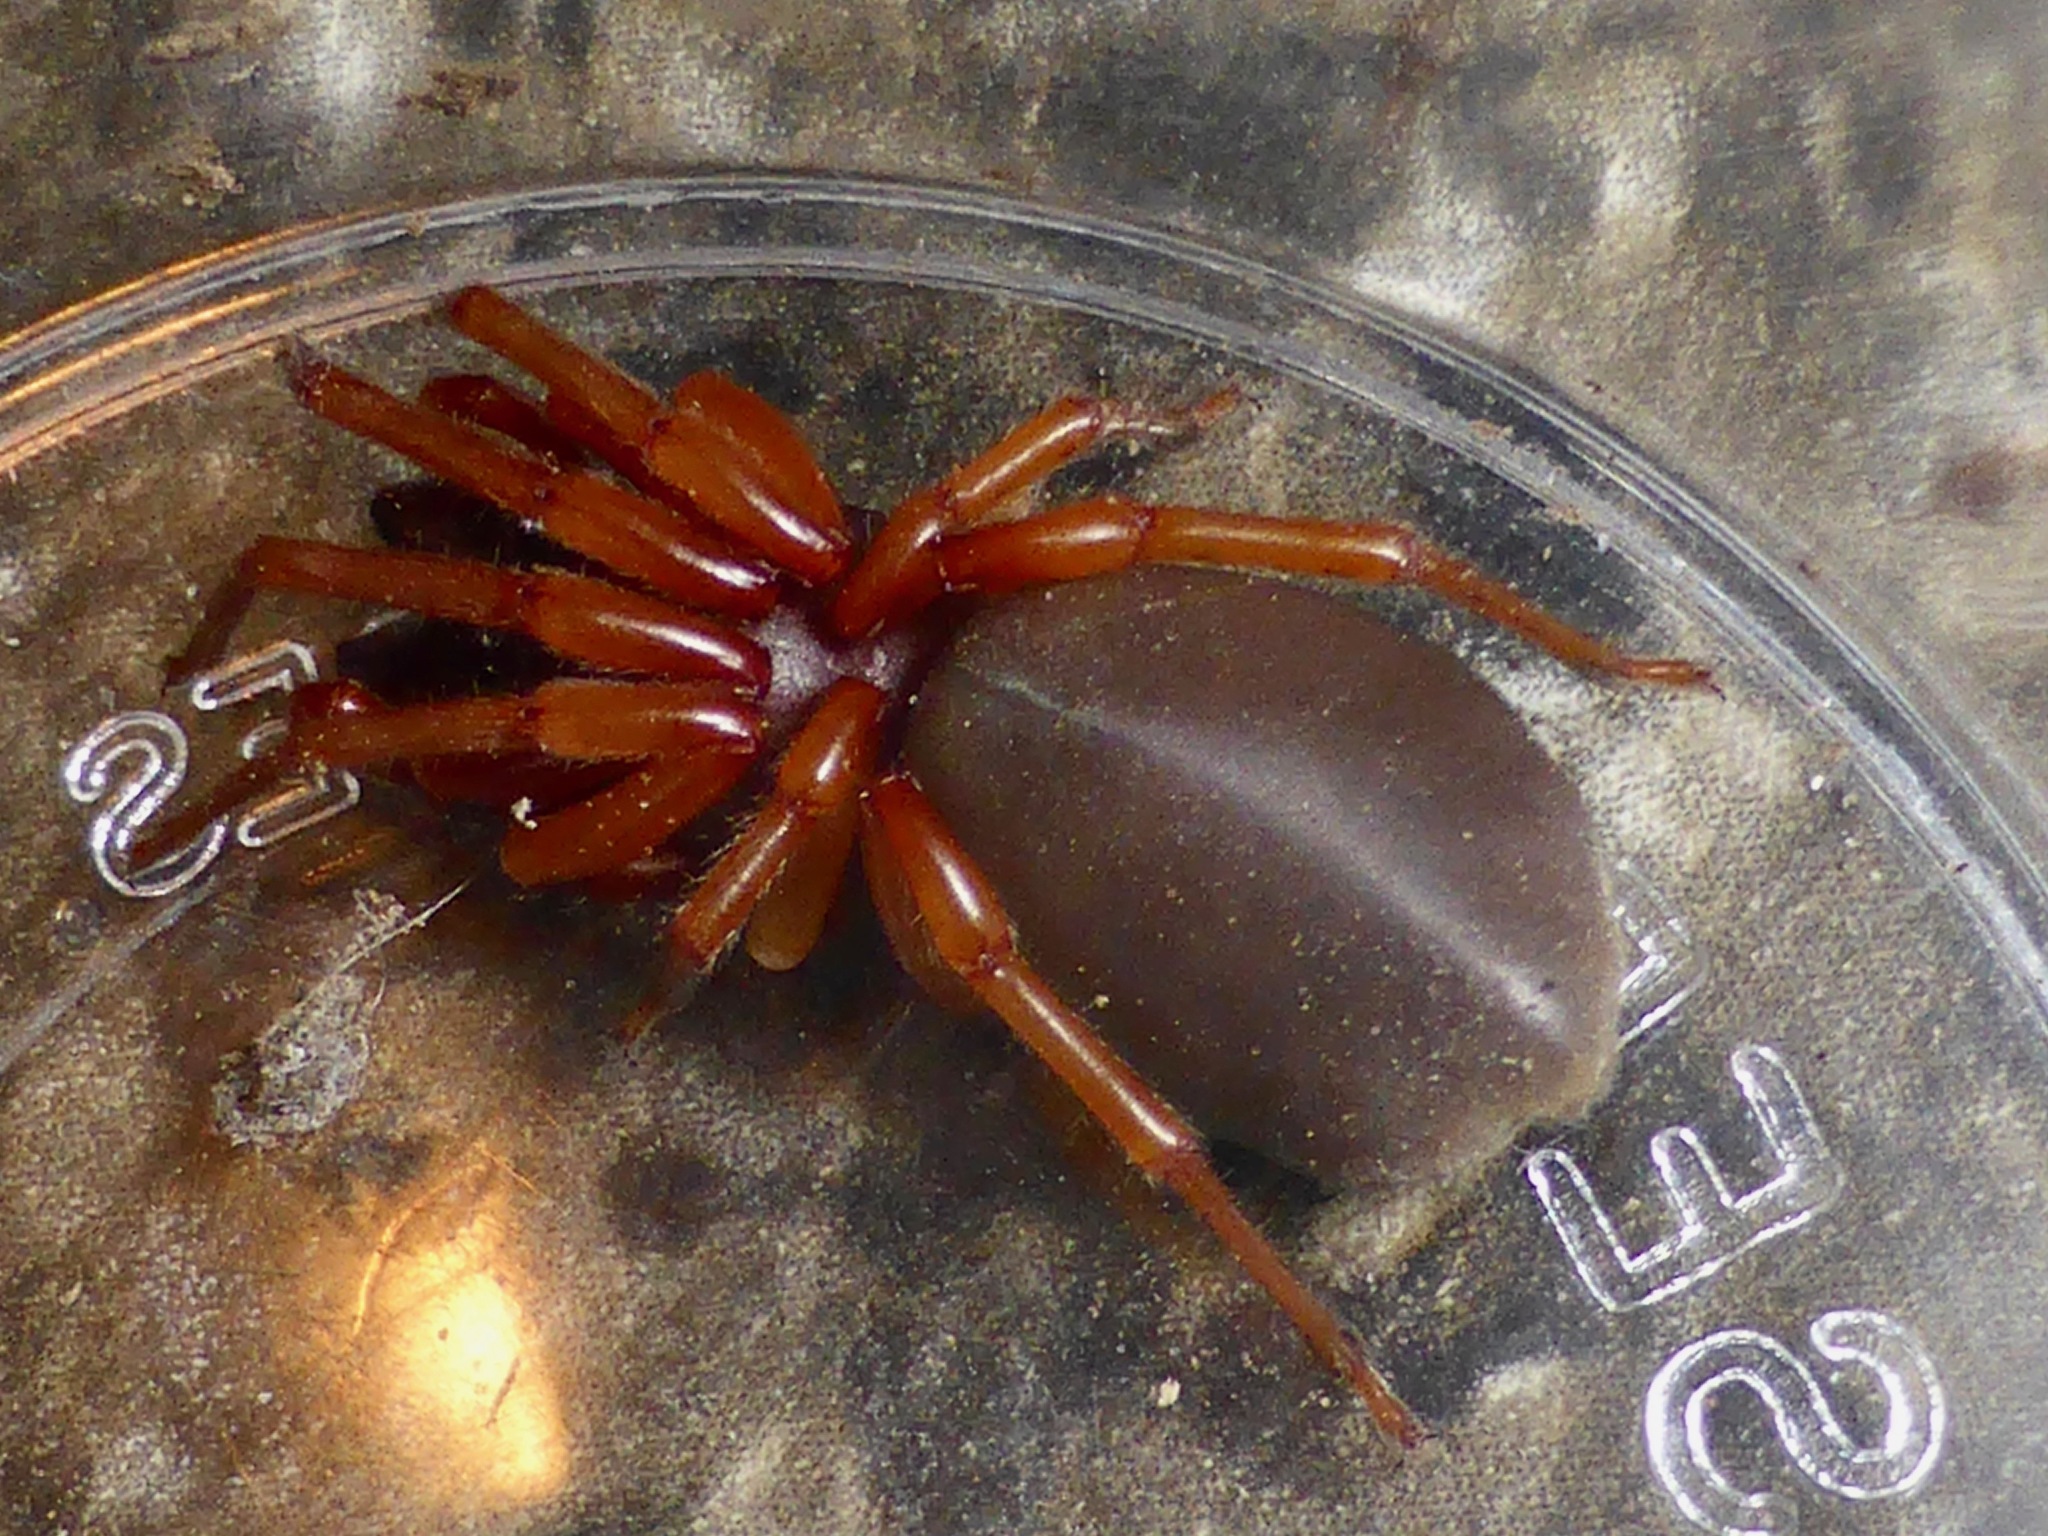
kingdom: Animalia
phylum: Arthropoda
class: Arachnida
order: Araneae
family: Dysderidae
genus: Dysdera
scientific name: Dysdera crocata
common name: Woodlouse spider
